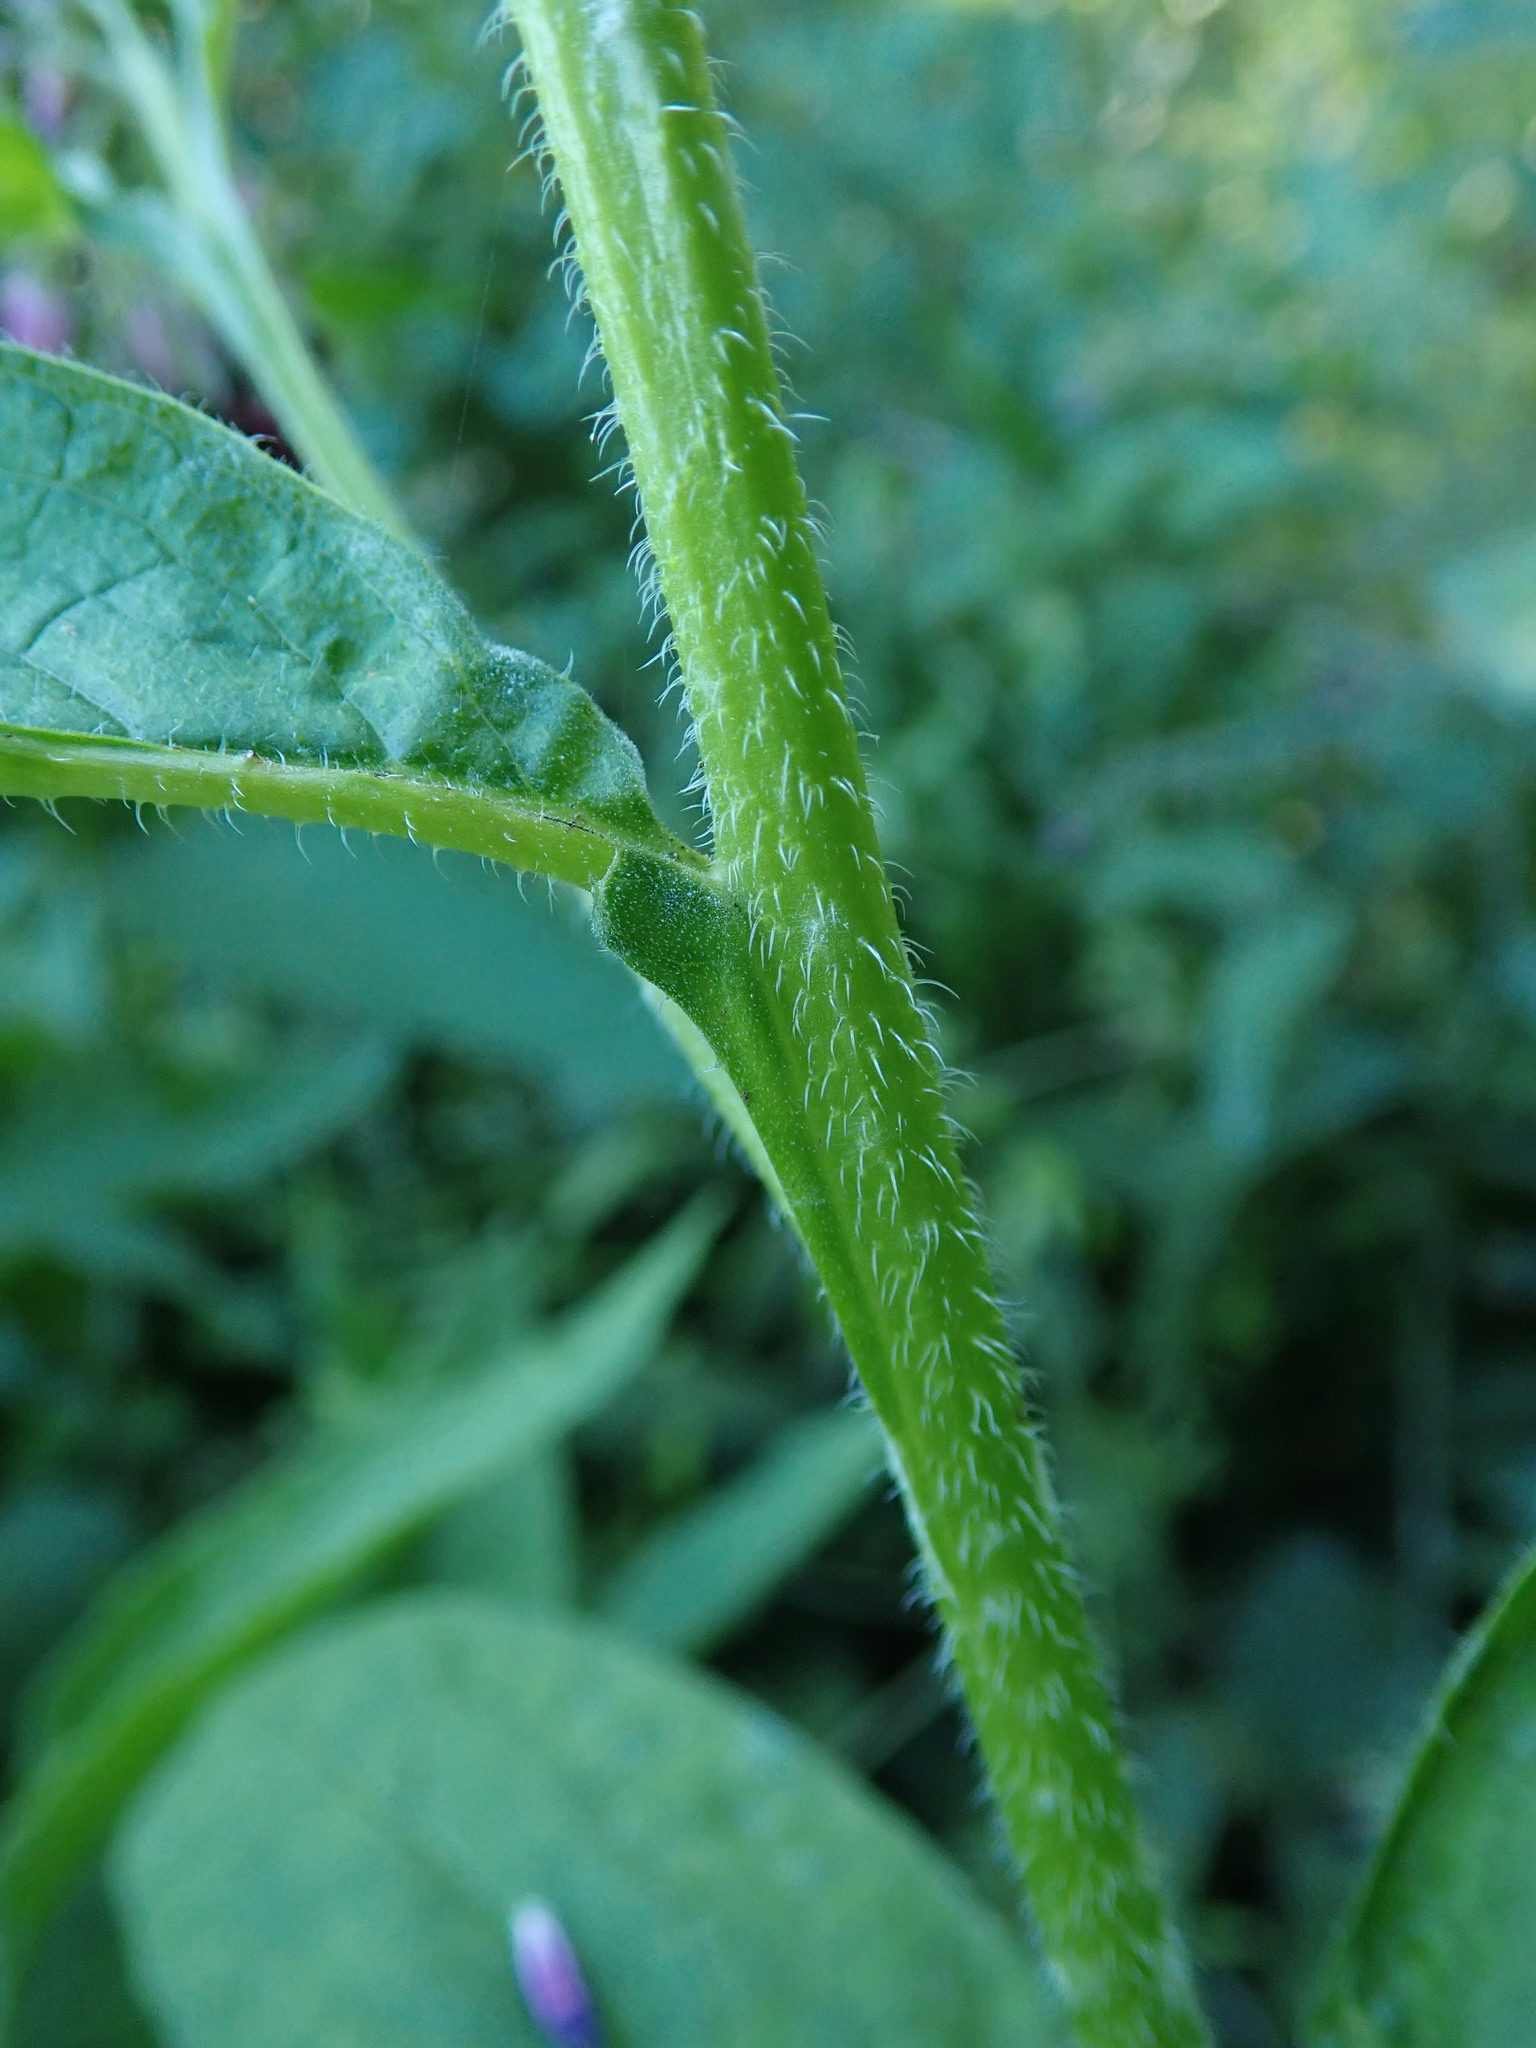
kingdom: Plantae
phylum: Tracheophyta
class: Magnoliopsida
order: Boraginales
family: Boraginaceae
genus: Symphytum
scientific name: Symphytum officinale
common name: Common comfrey
